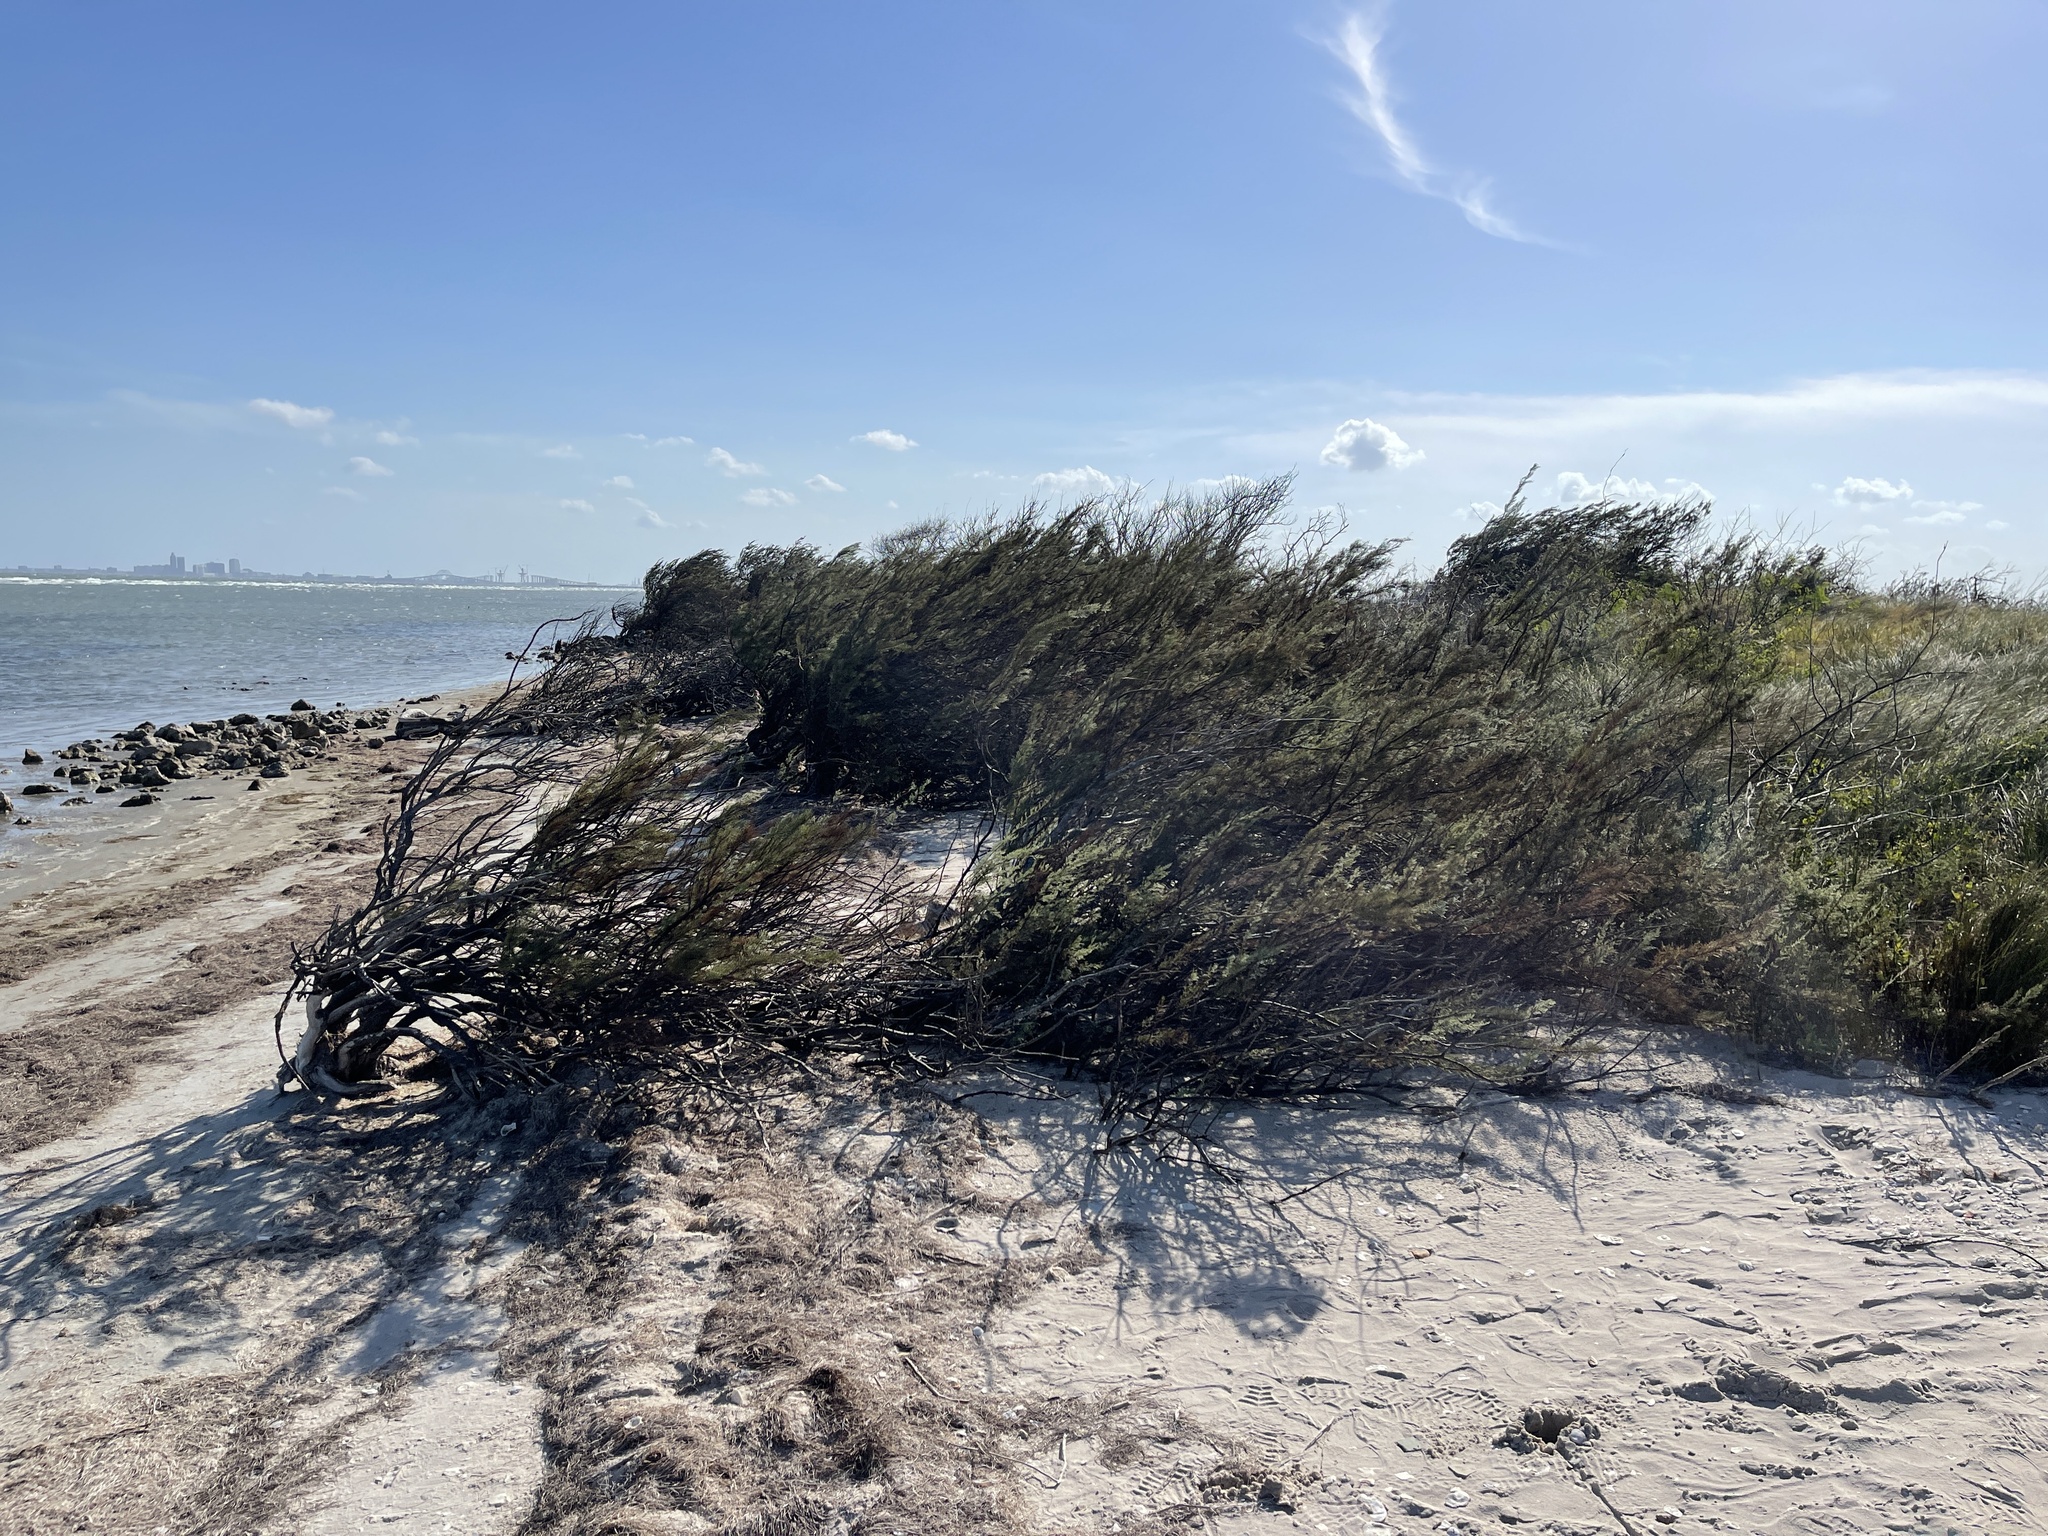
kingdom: Plantae
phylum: Tracheophyta
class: Magnoliopsida
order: Caryophyllales
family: Tamaricaceae
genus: Tamarix
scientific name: Tamarix
